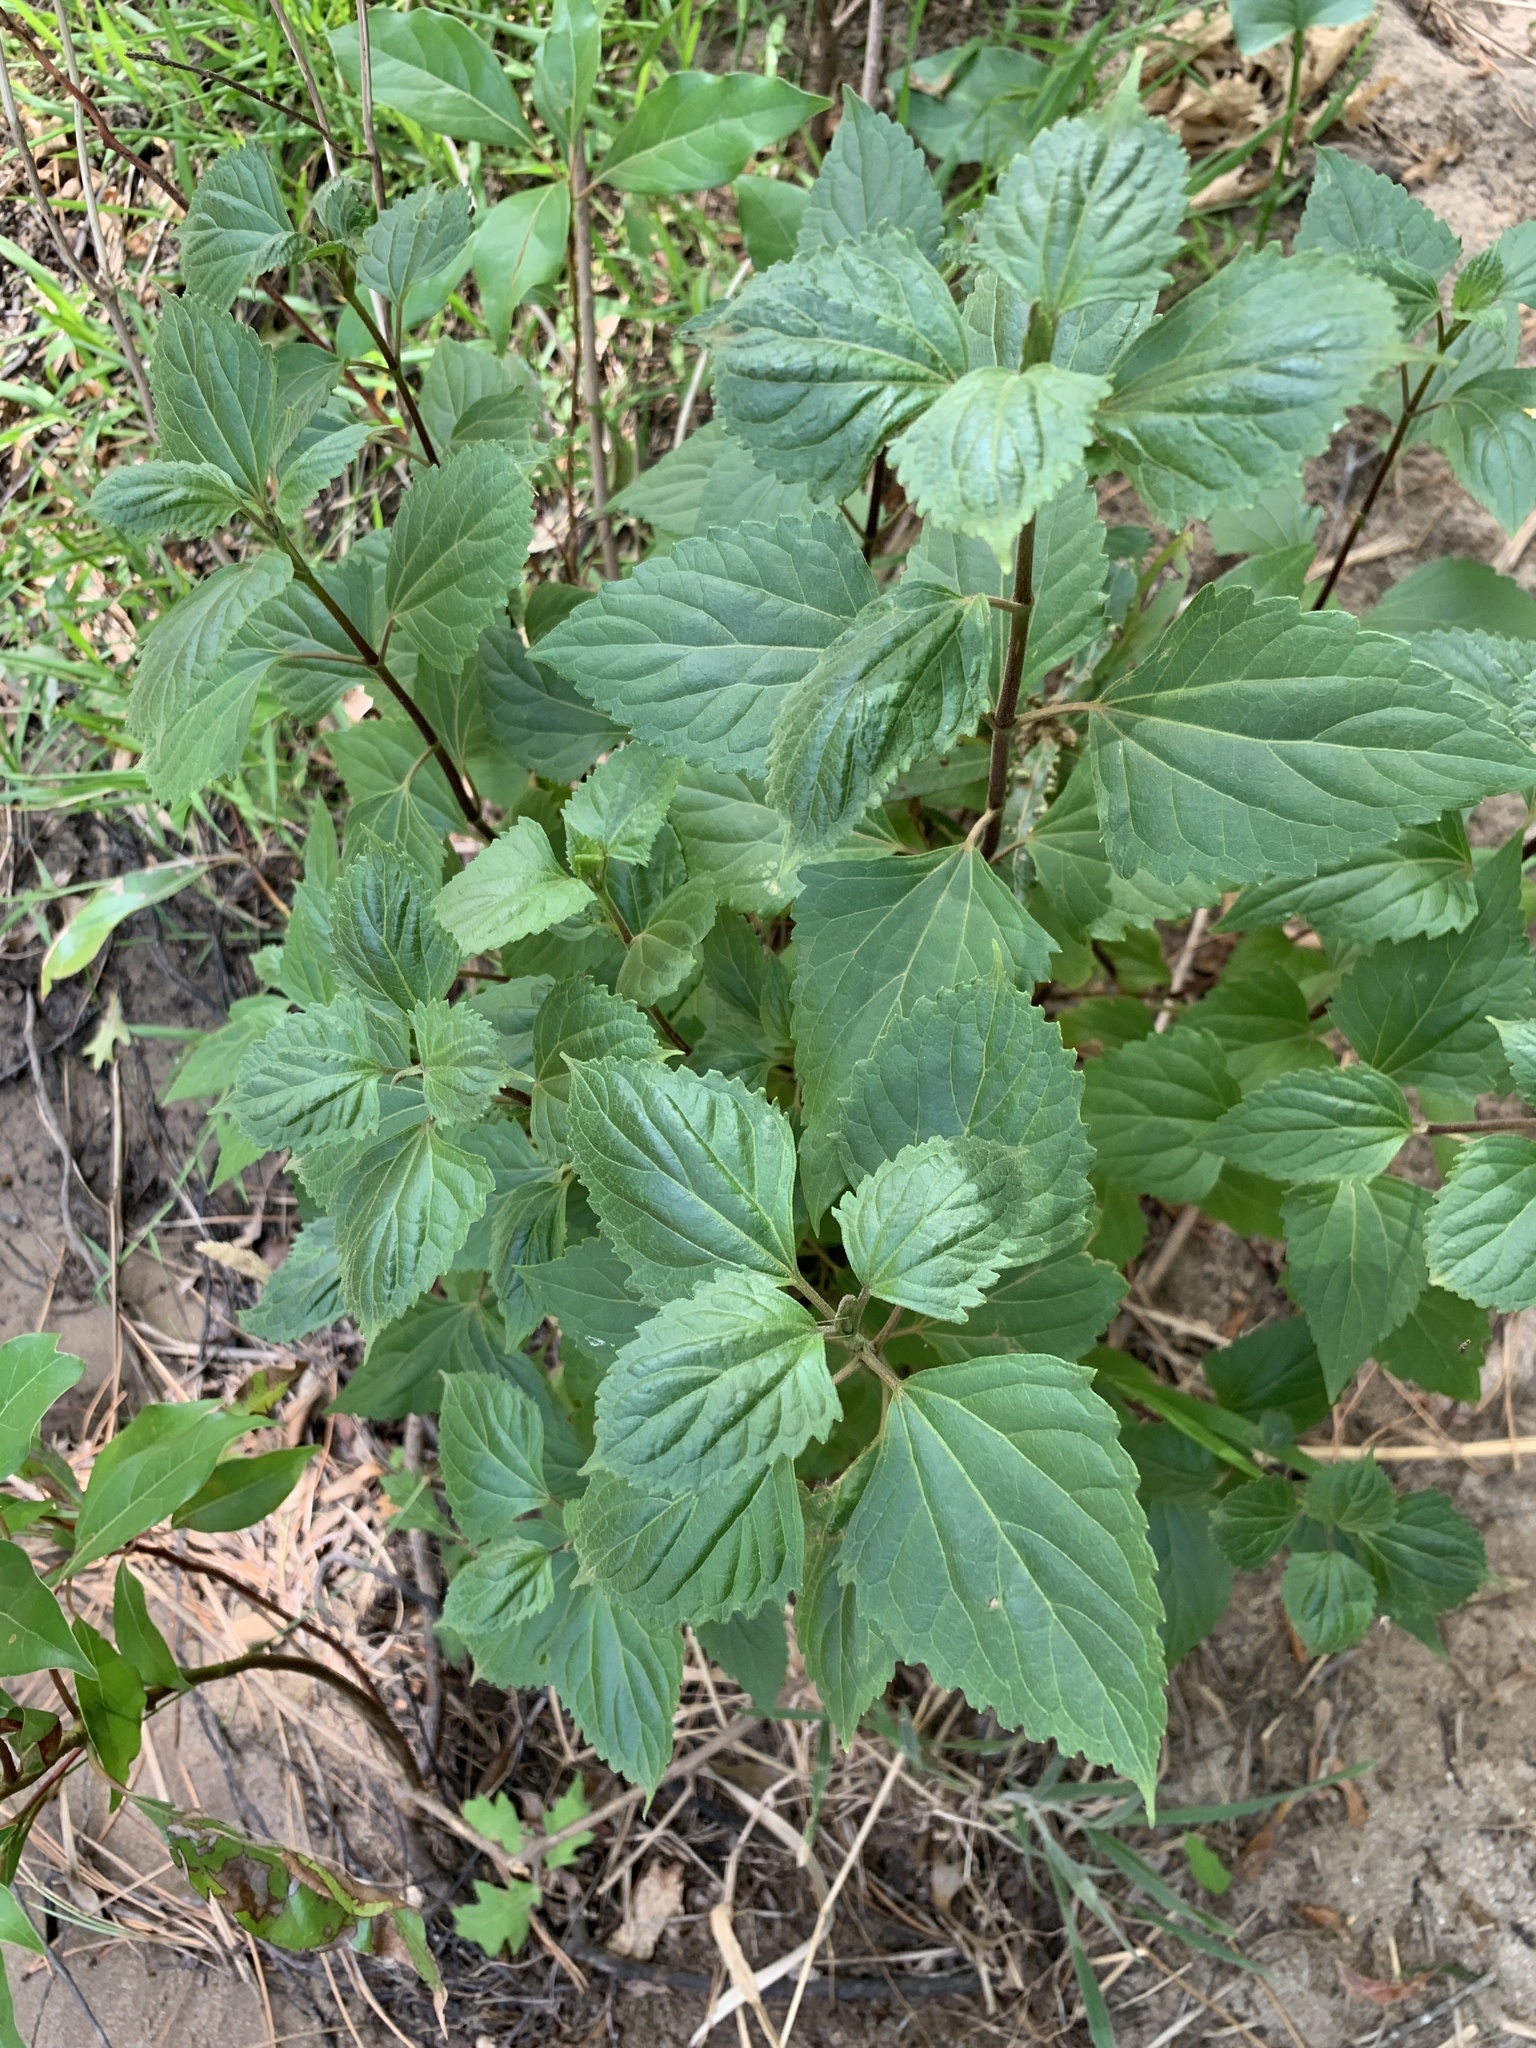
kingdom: Plantae
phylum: Tracheophyta
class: Magnoliopsida
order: Asterales
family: Asteraceae
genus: Ageratina
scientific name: Ageratina adenophora
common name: Sticky snakeroot
